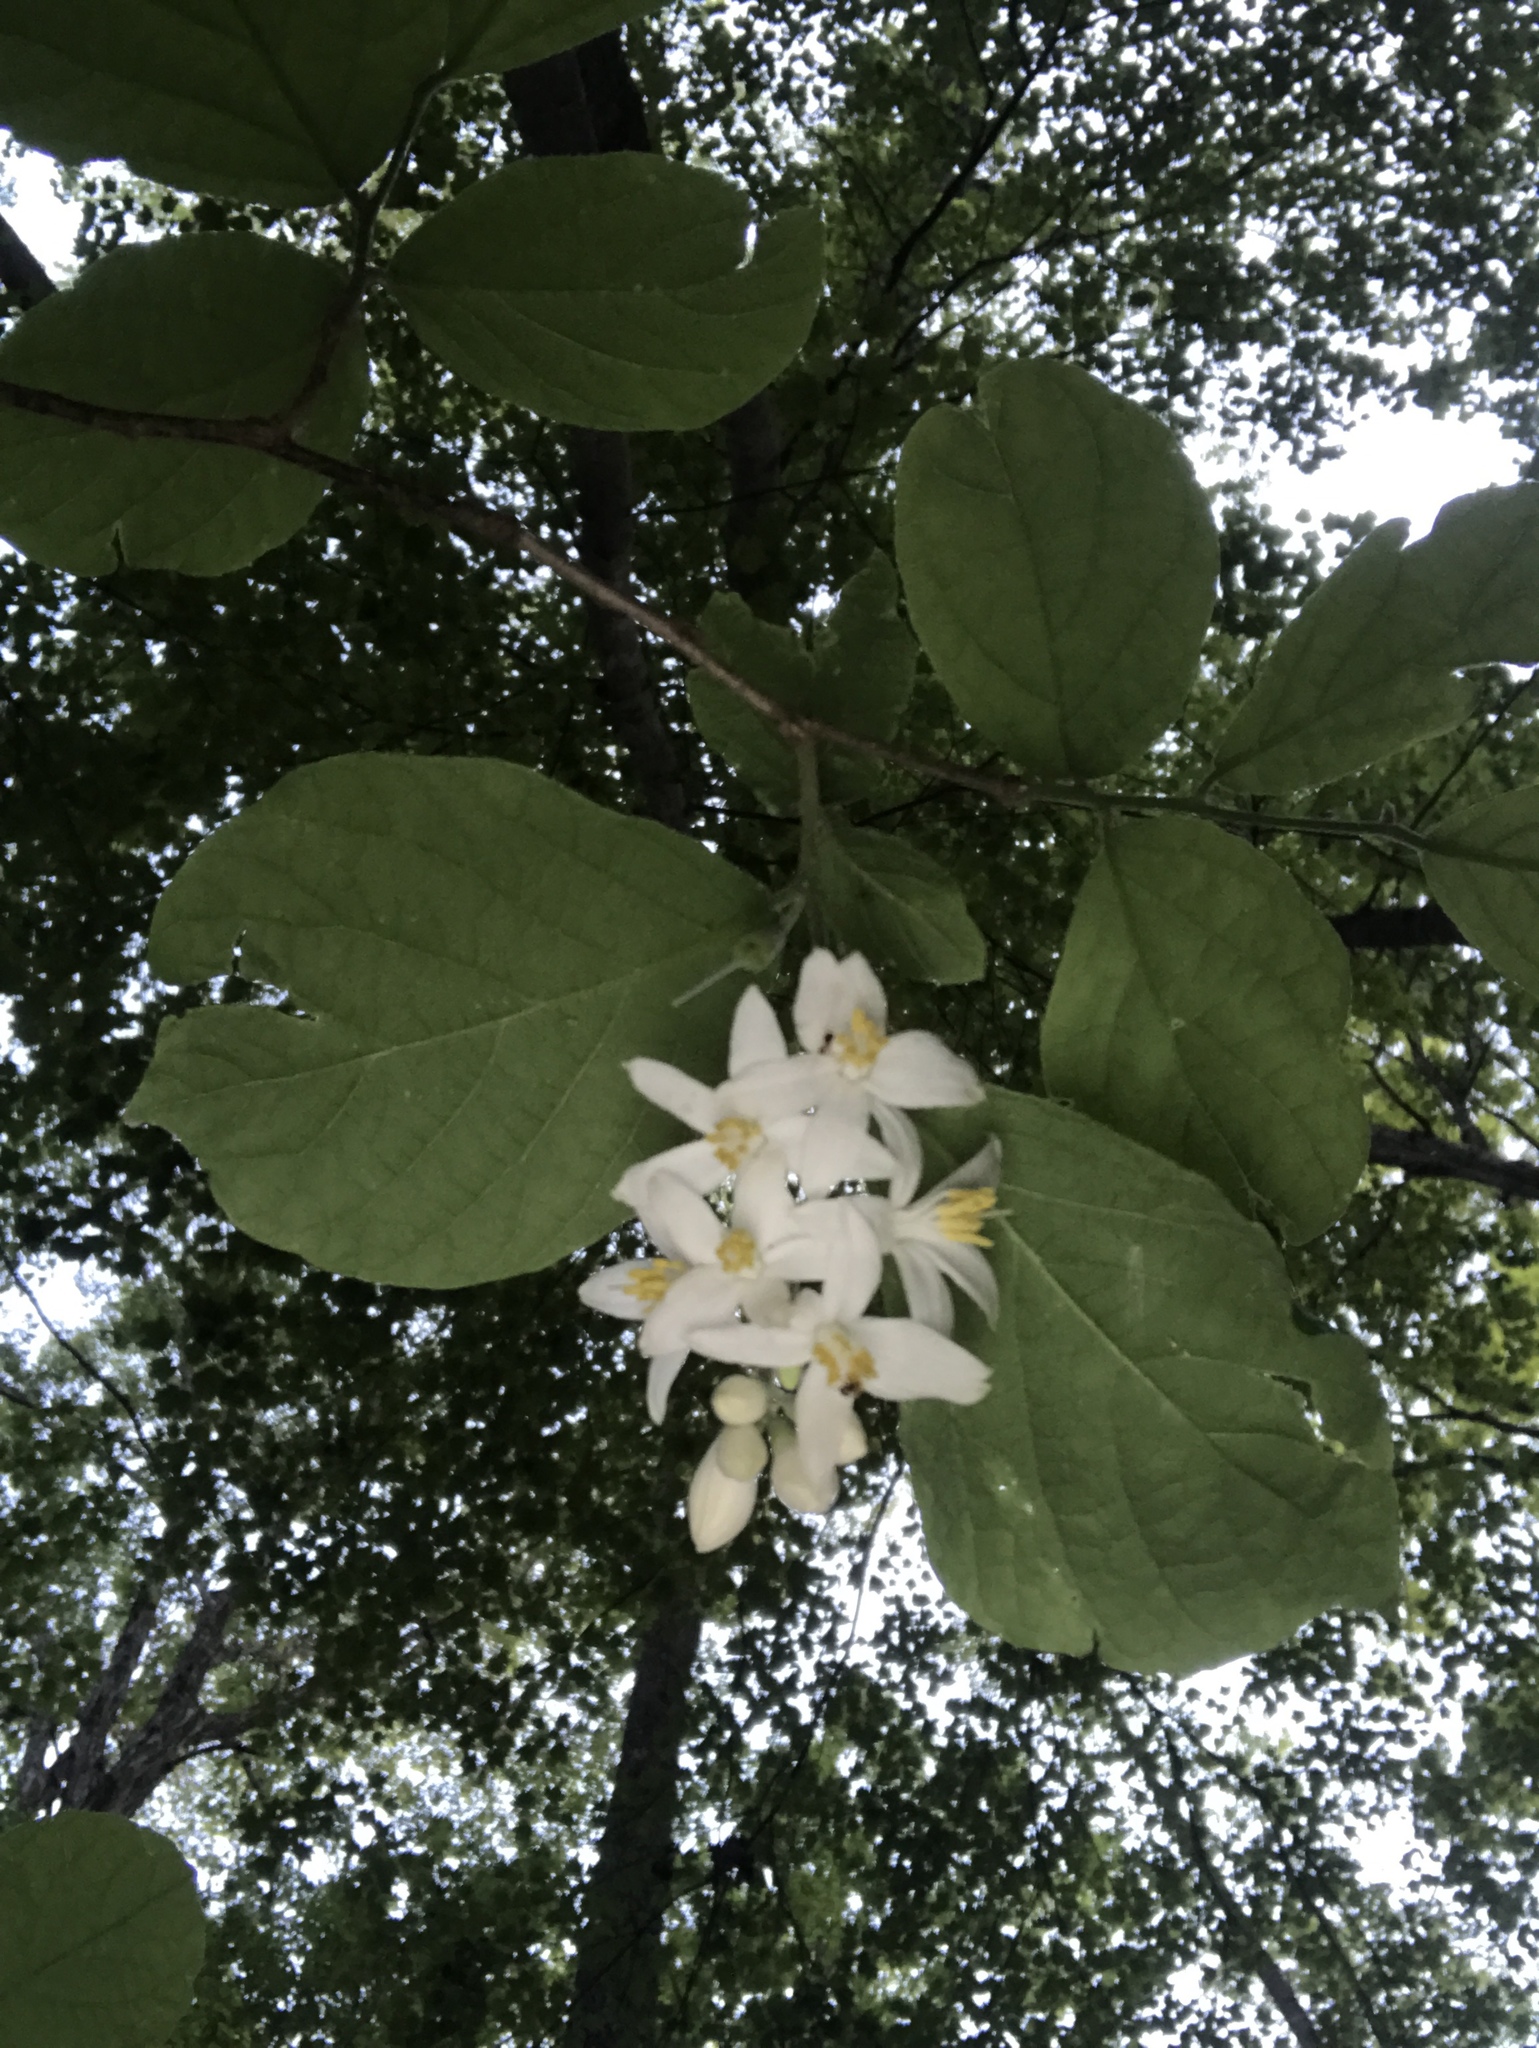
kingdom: Plantae
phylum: Tracheophyta
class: Magnoliopsida
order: Ericales
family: Styracaceae
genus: Styrax
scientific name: Styrax grandifolius
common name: Big-leaf snowbell
